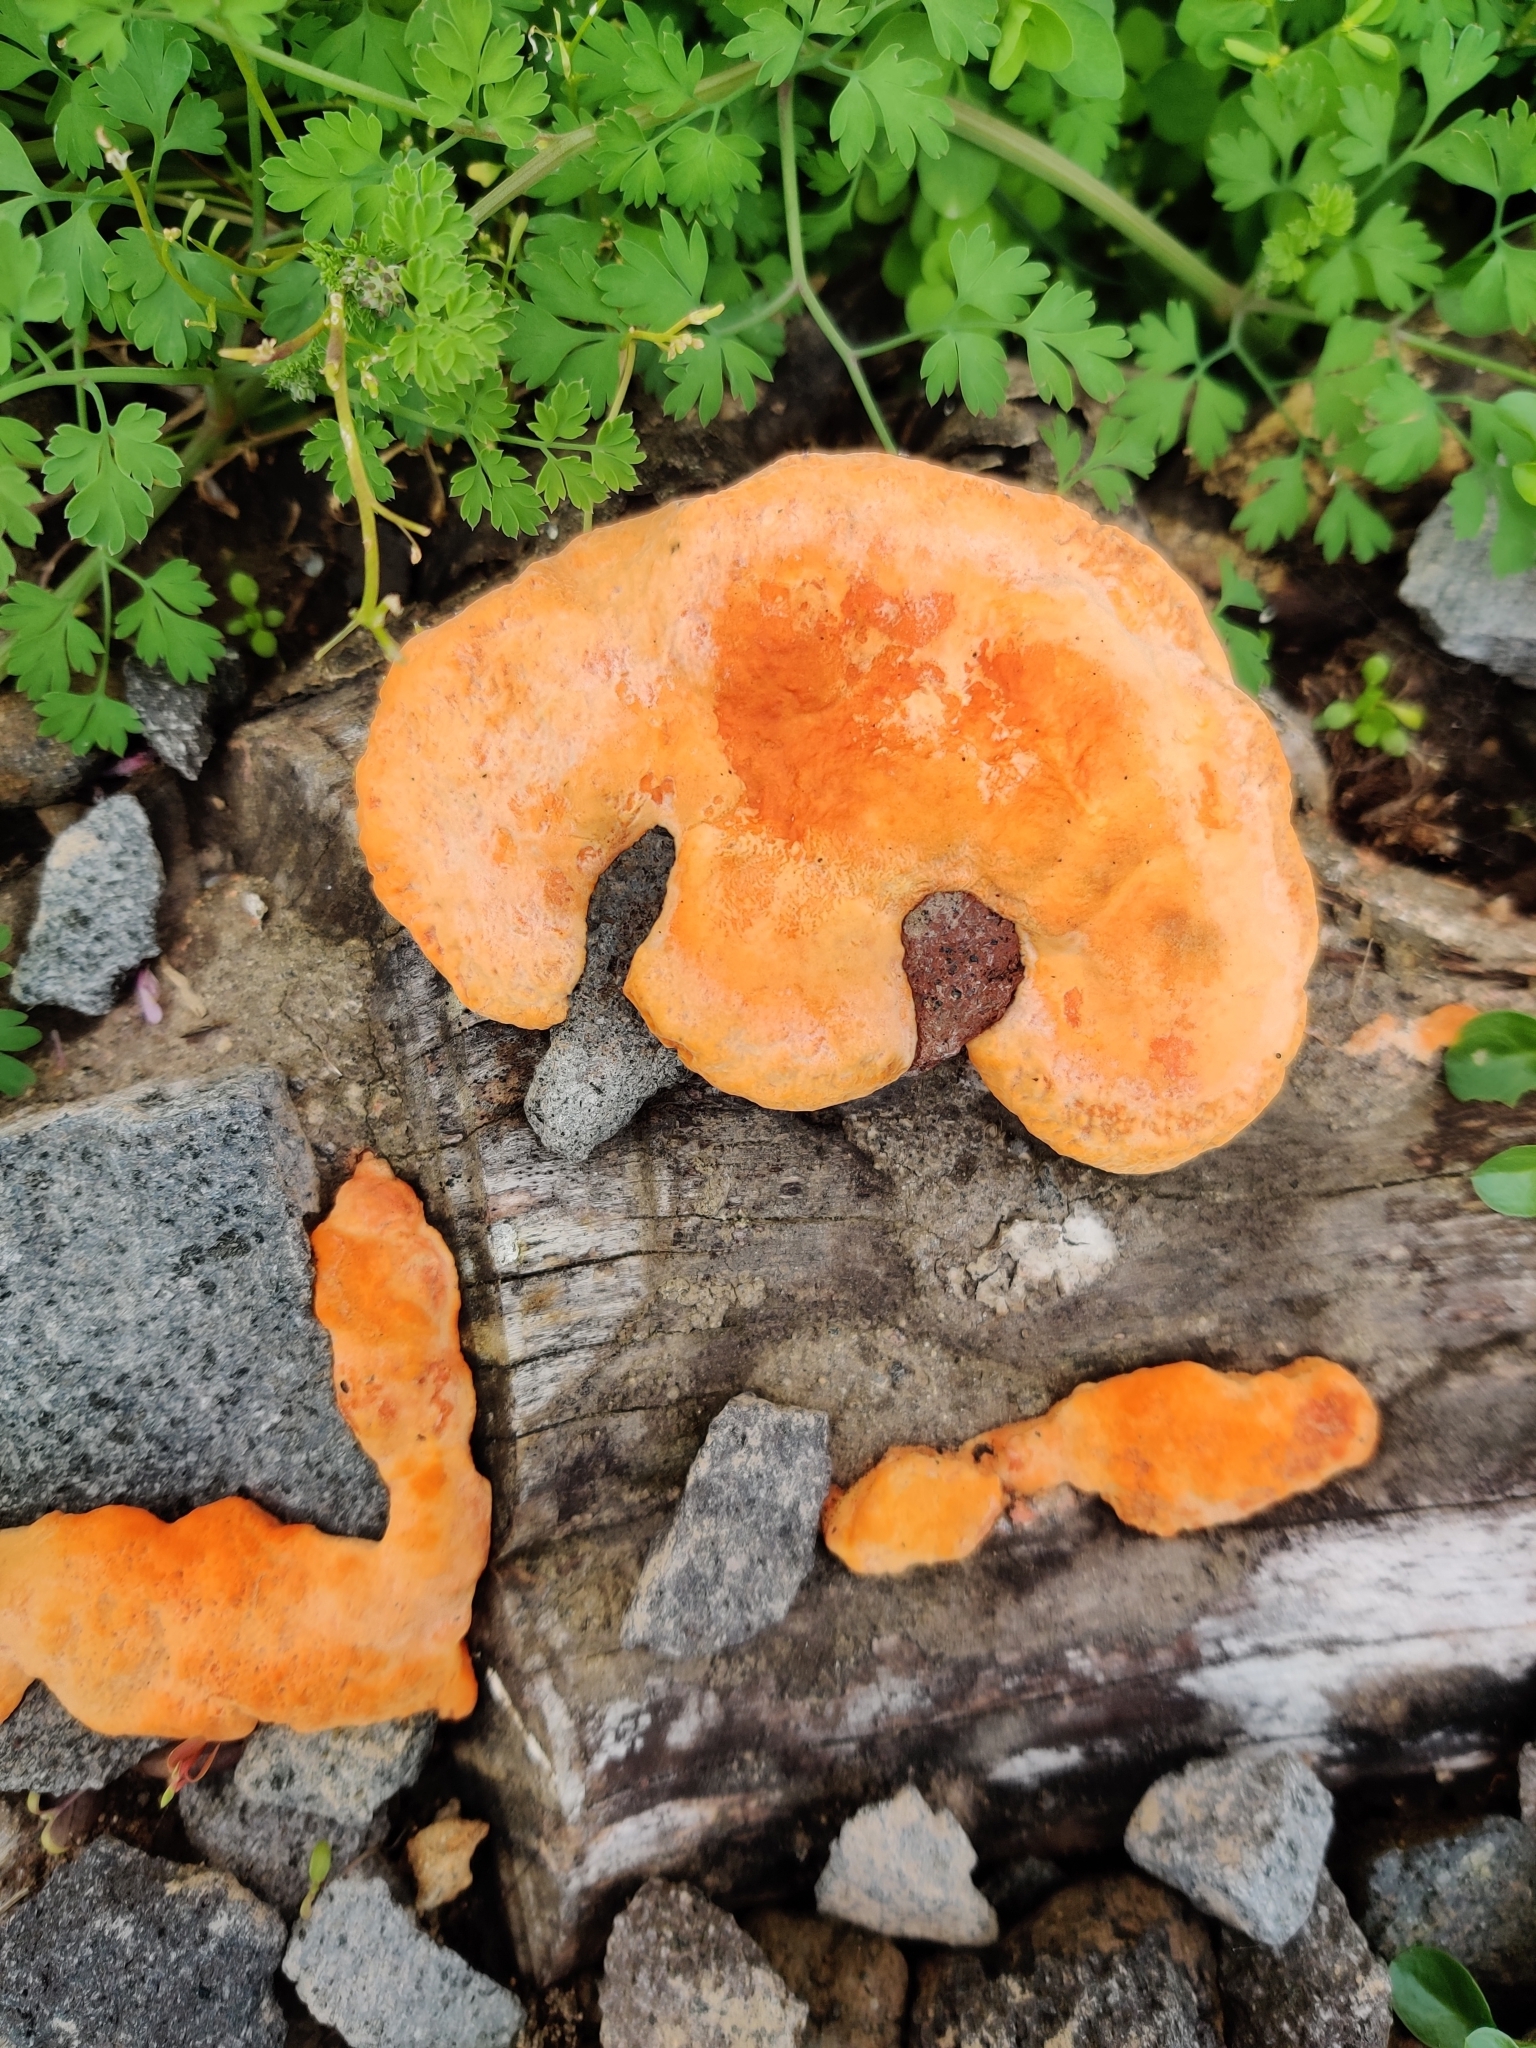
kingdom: Fungi
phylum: Basidiomycota
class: Agaricomycetes
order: Polyporales
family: Polyporaceae
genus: Trametes
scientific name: Trametes coccinea
